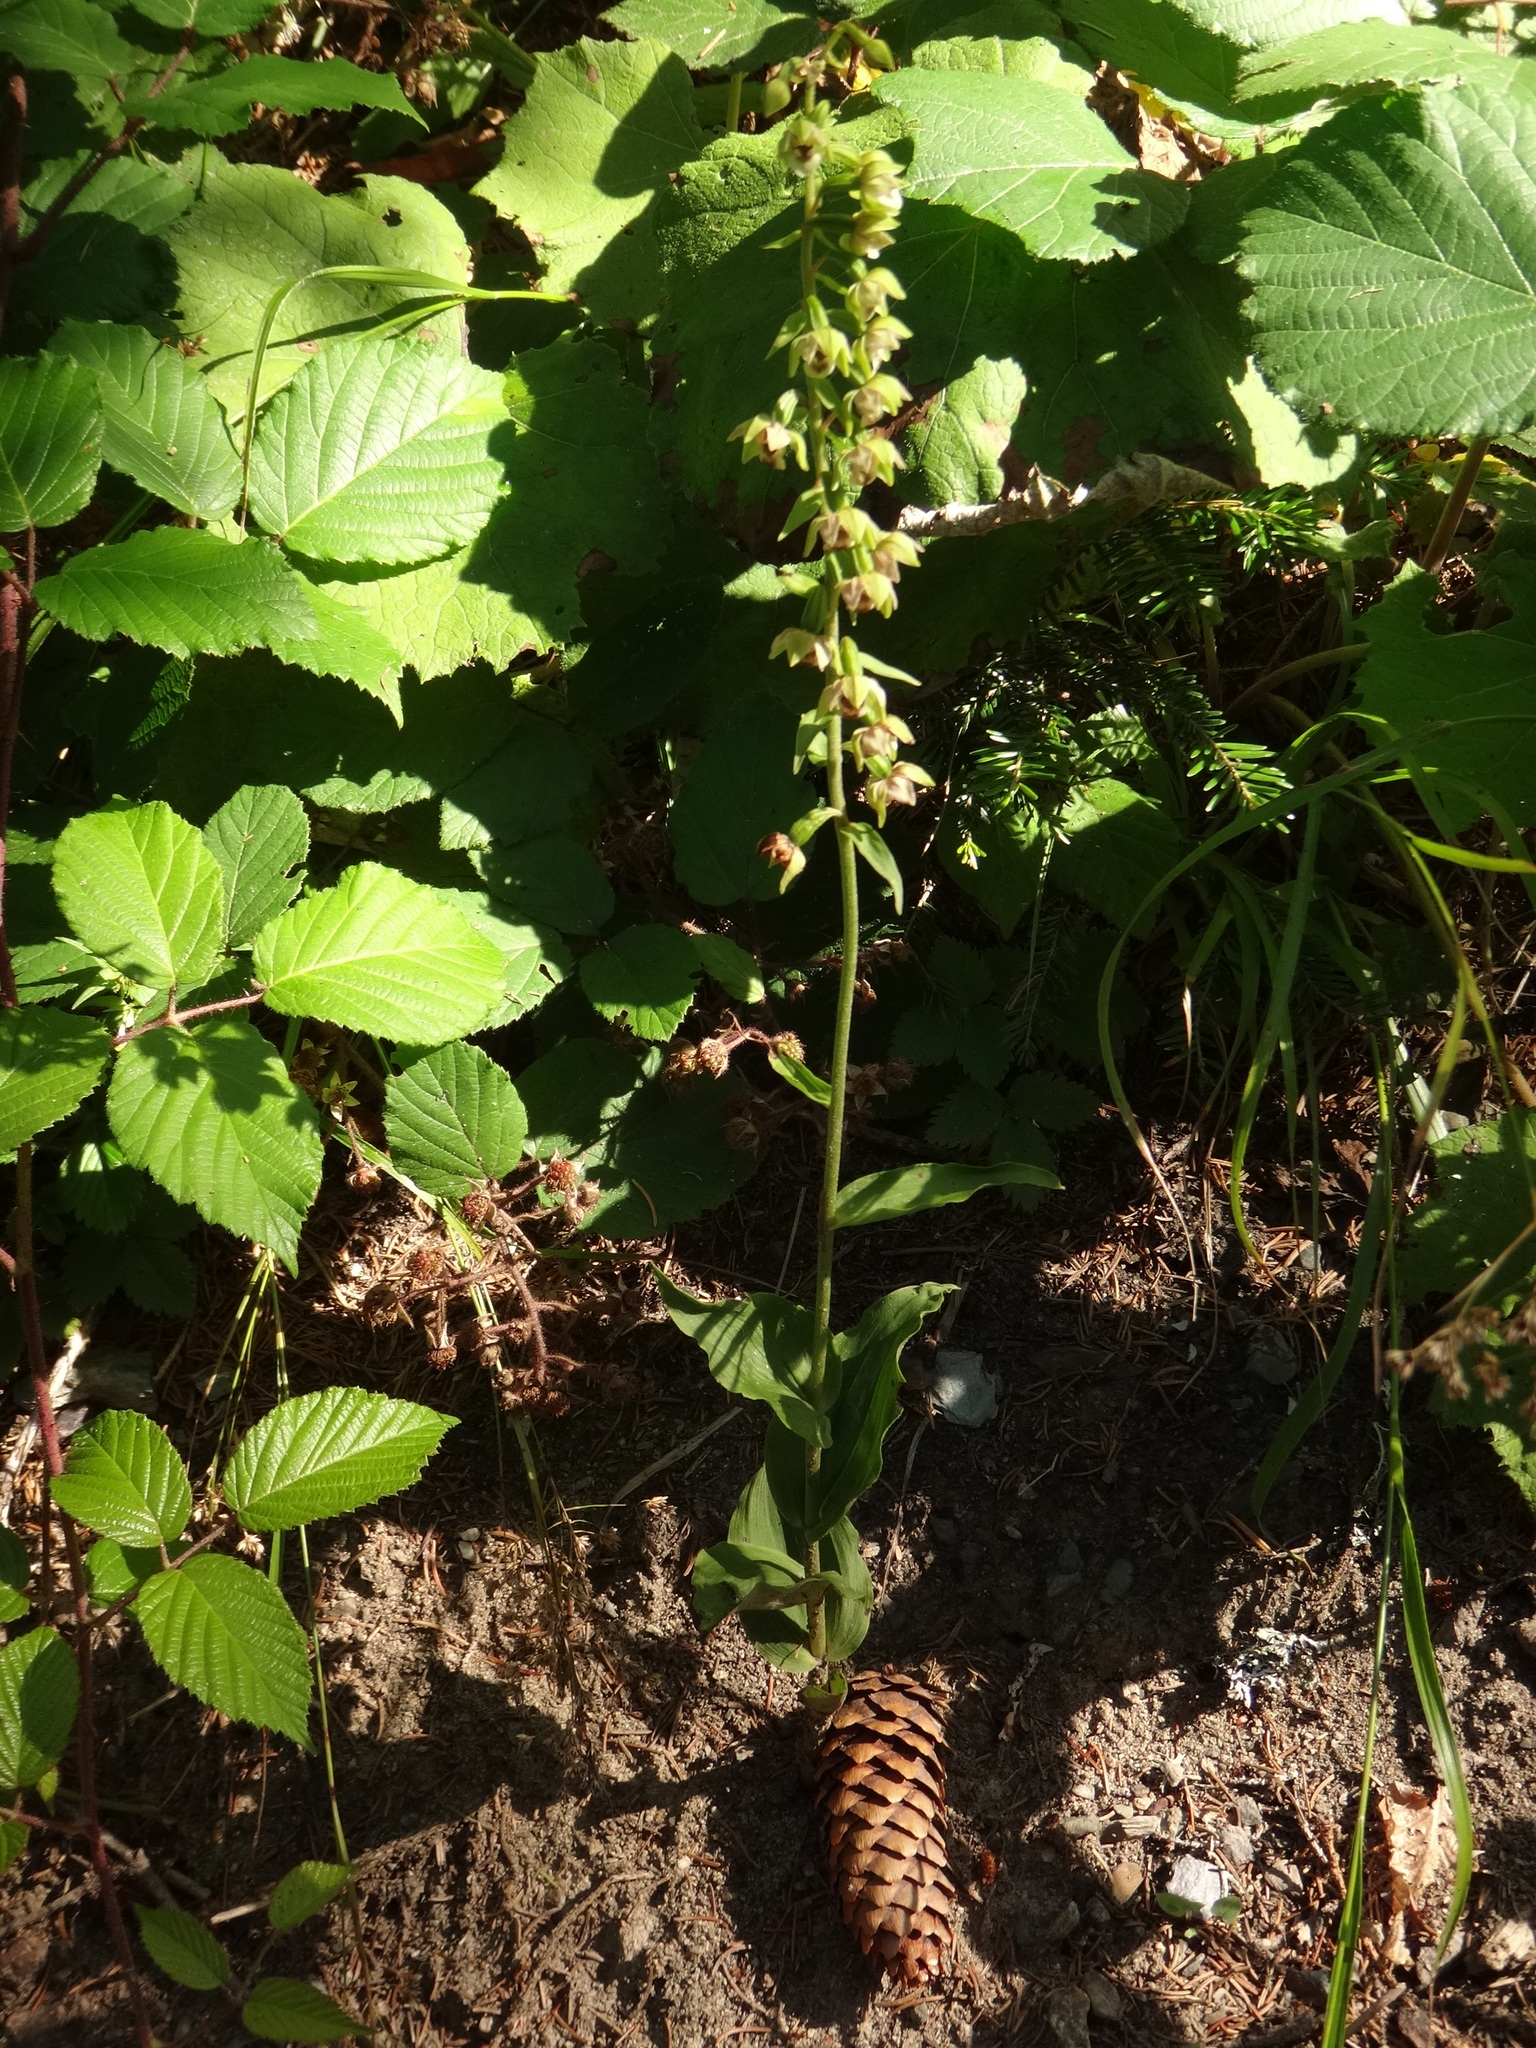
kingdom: Plantae
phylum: Tracheophyta
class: Liliopsida
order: Asparagales
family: Orchidaceae
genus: Epipactis
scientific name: Epipactis helleborine
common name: Broad-leaved helleborine
